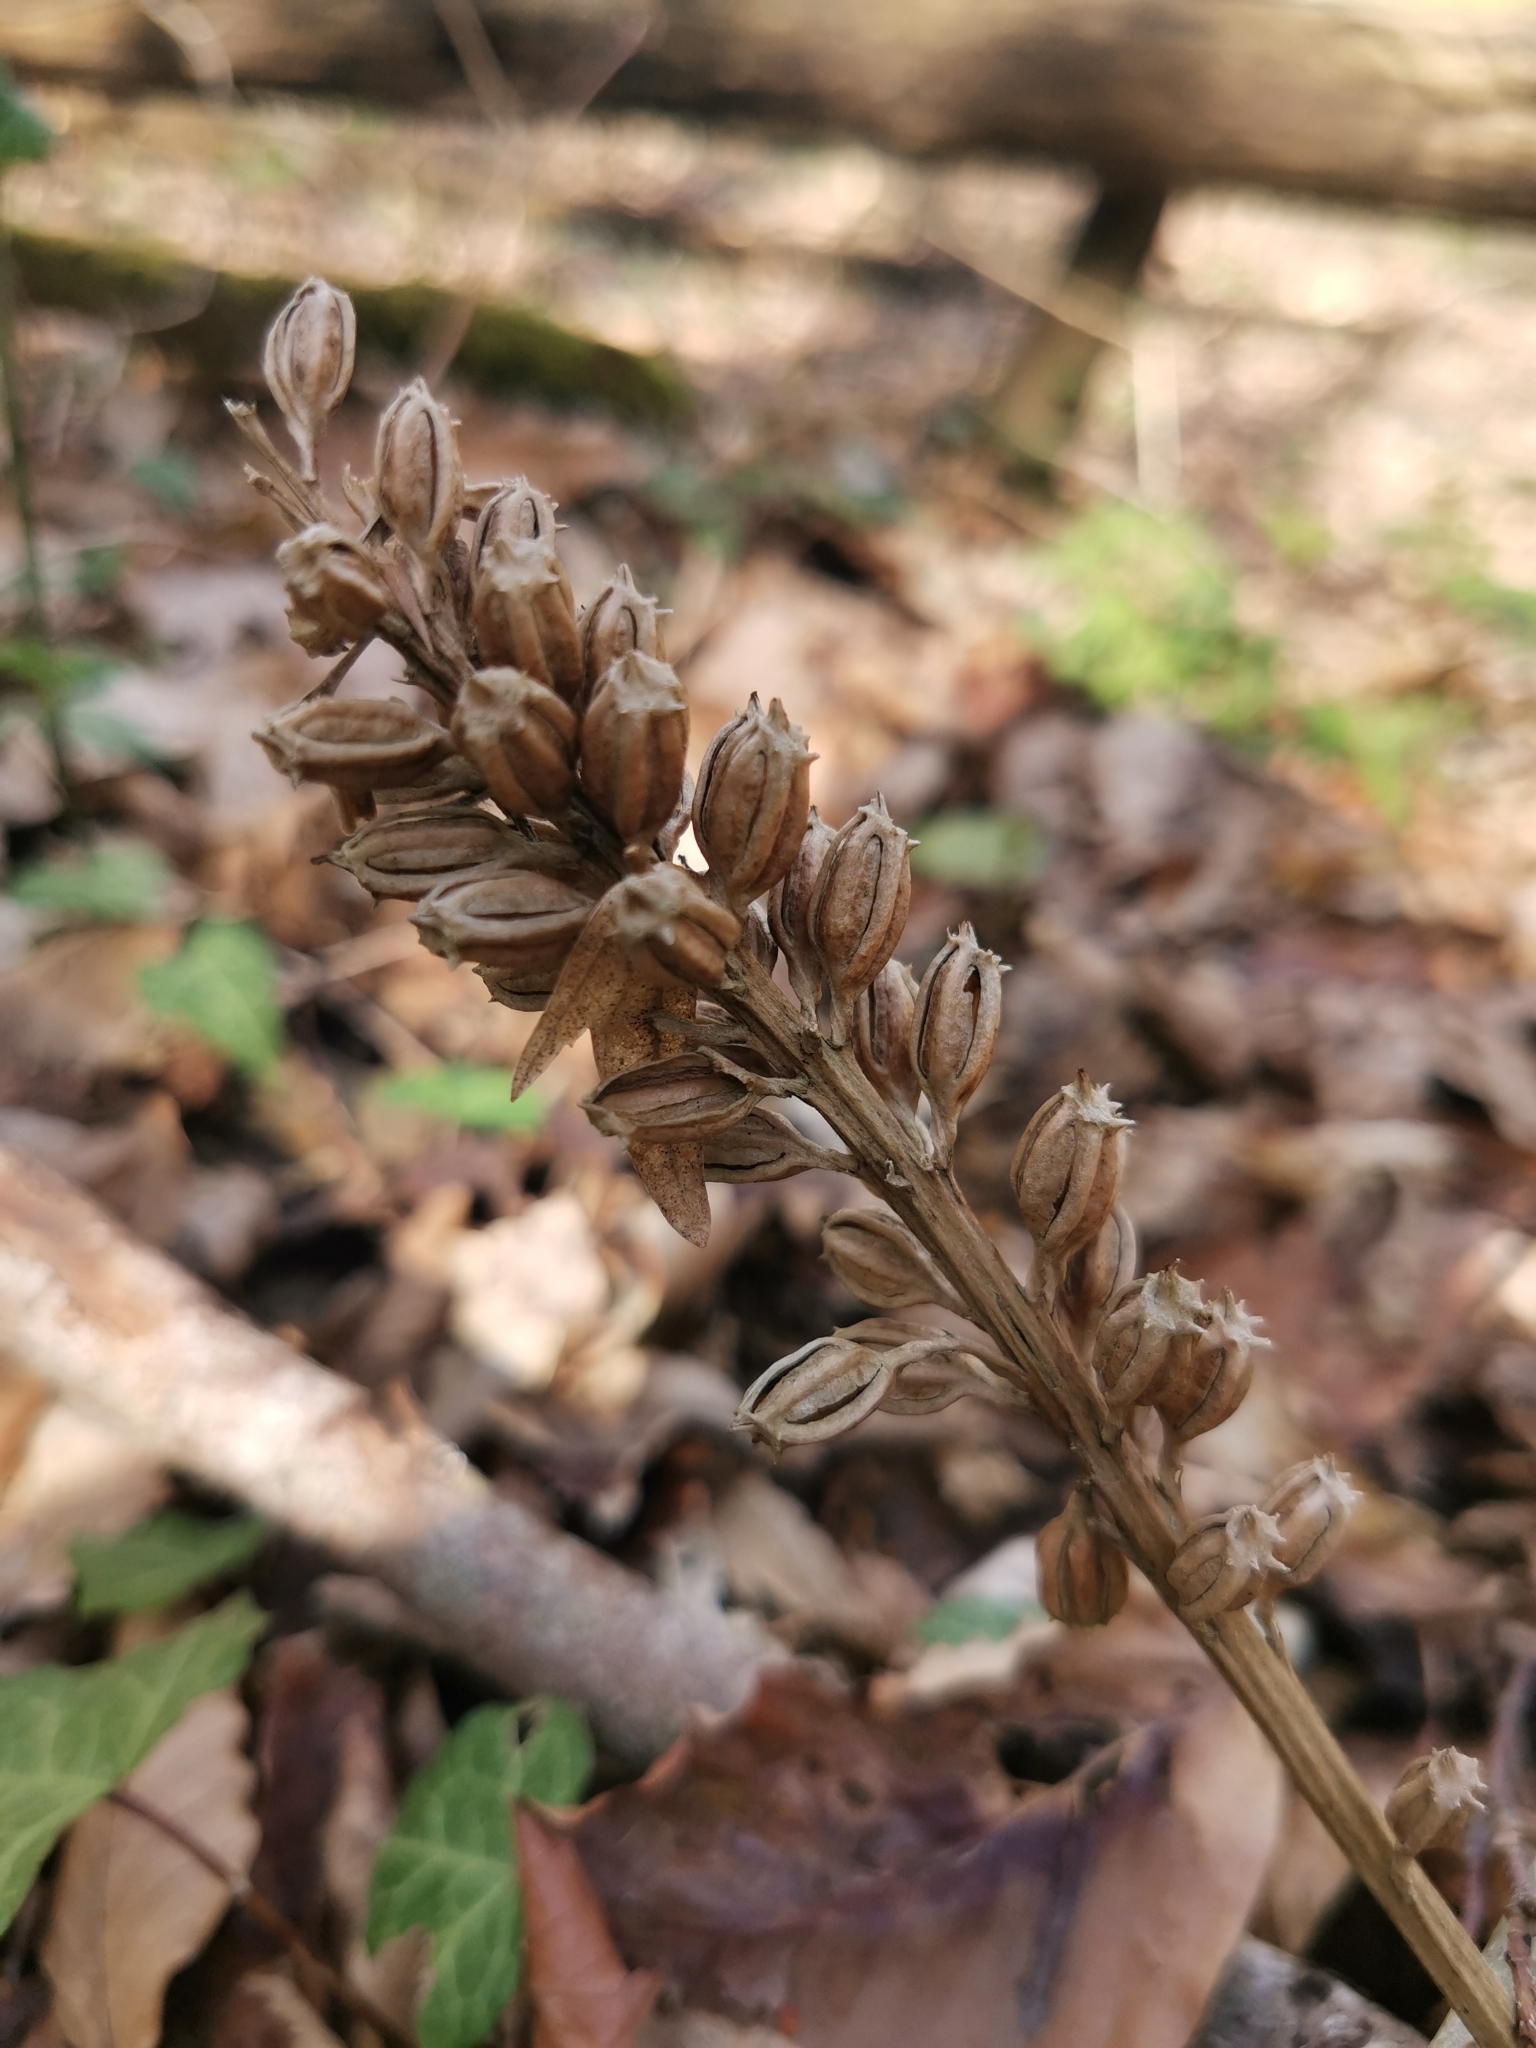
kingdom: Plantae
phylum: Tracheophyta
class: Liliopsida
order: Asparagales
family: Orchidaceae
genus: Neottia
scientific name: Neottia nidus-avis
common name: Bird's-nest orchid
